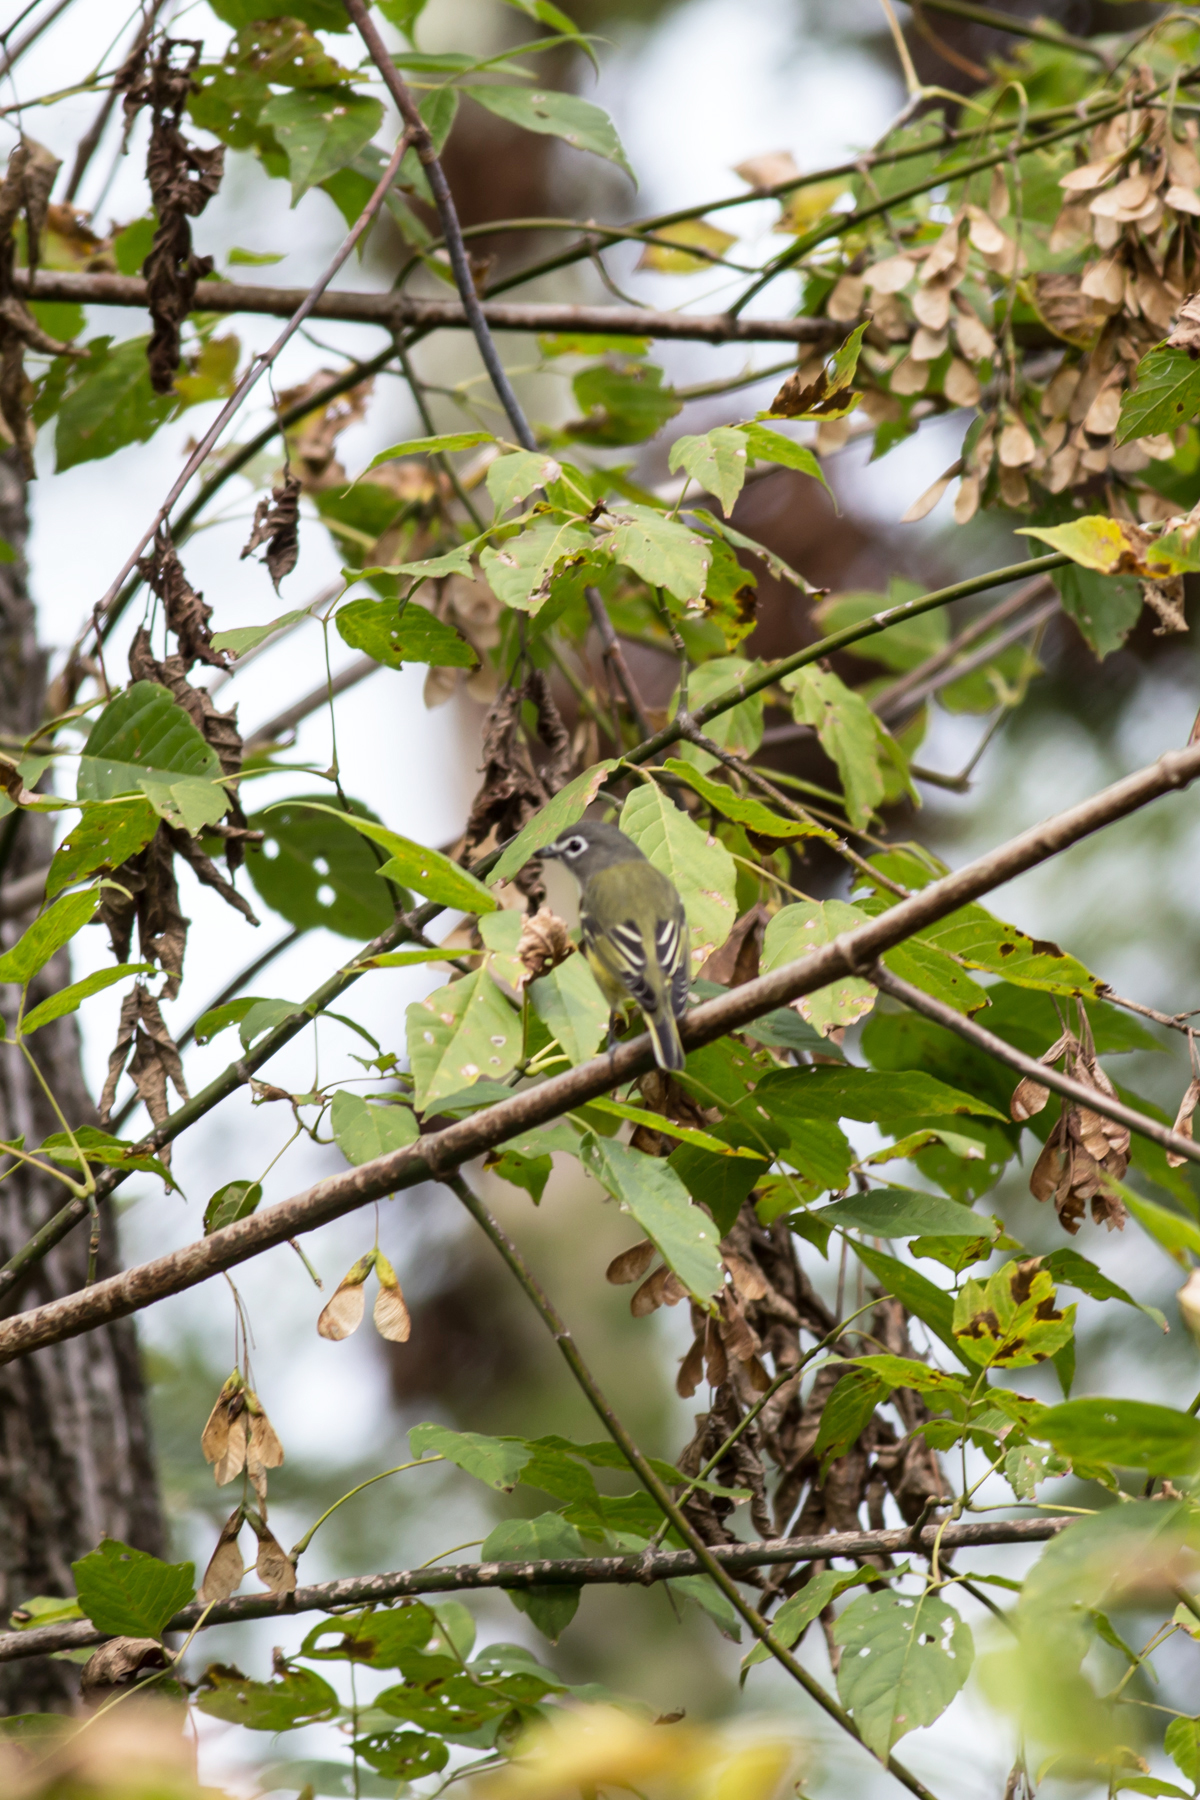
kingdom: Animalia
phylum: Chordata
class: Aves
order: Passeriformes
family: Vireonidae
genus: Vireo
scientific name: Vireo solitarius
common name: Blue-headed vireo
